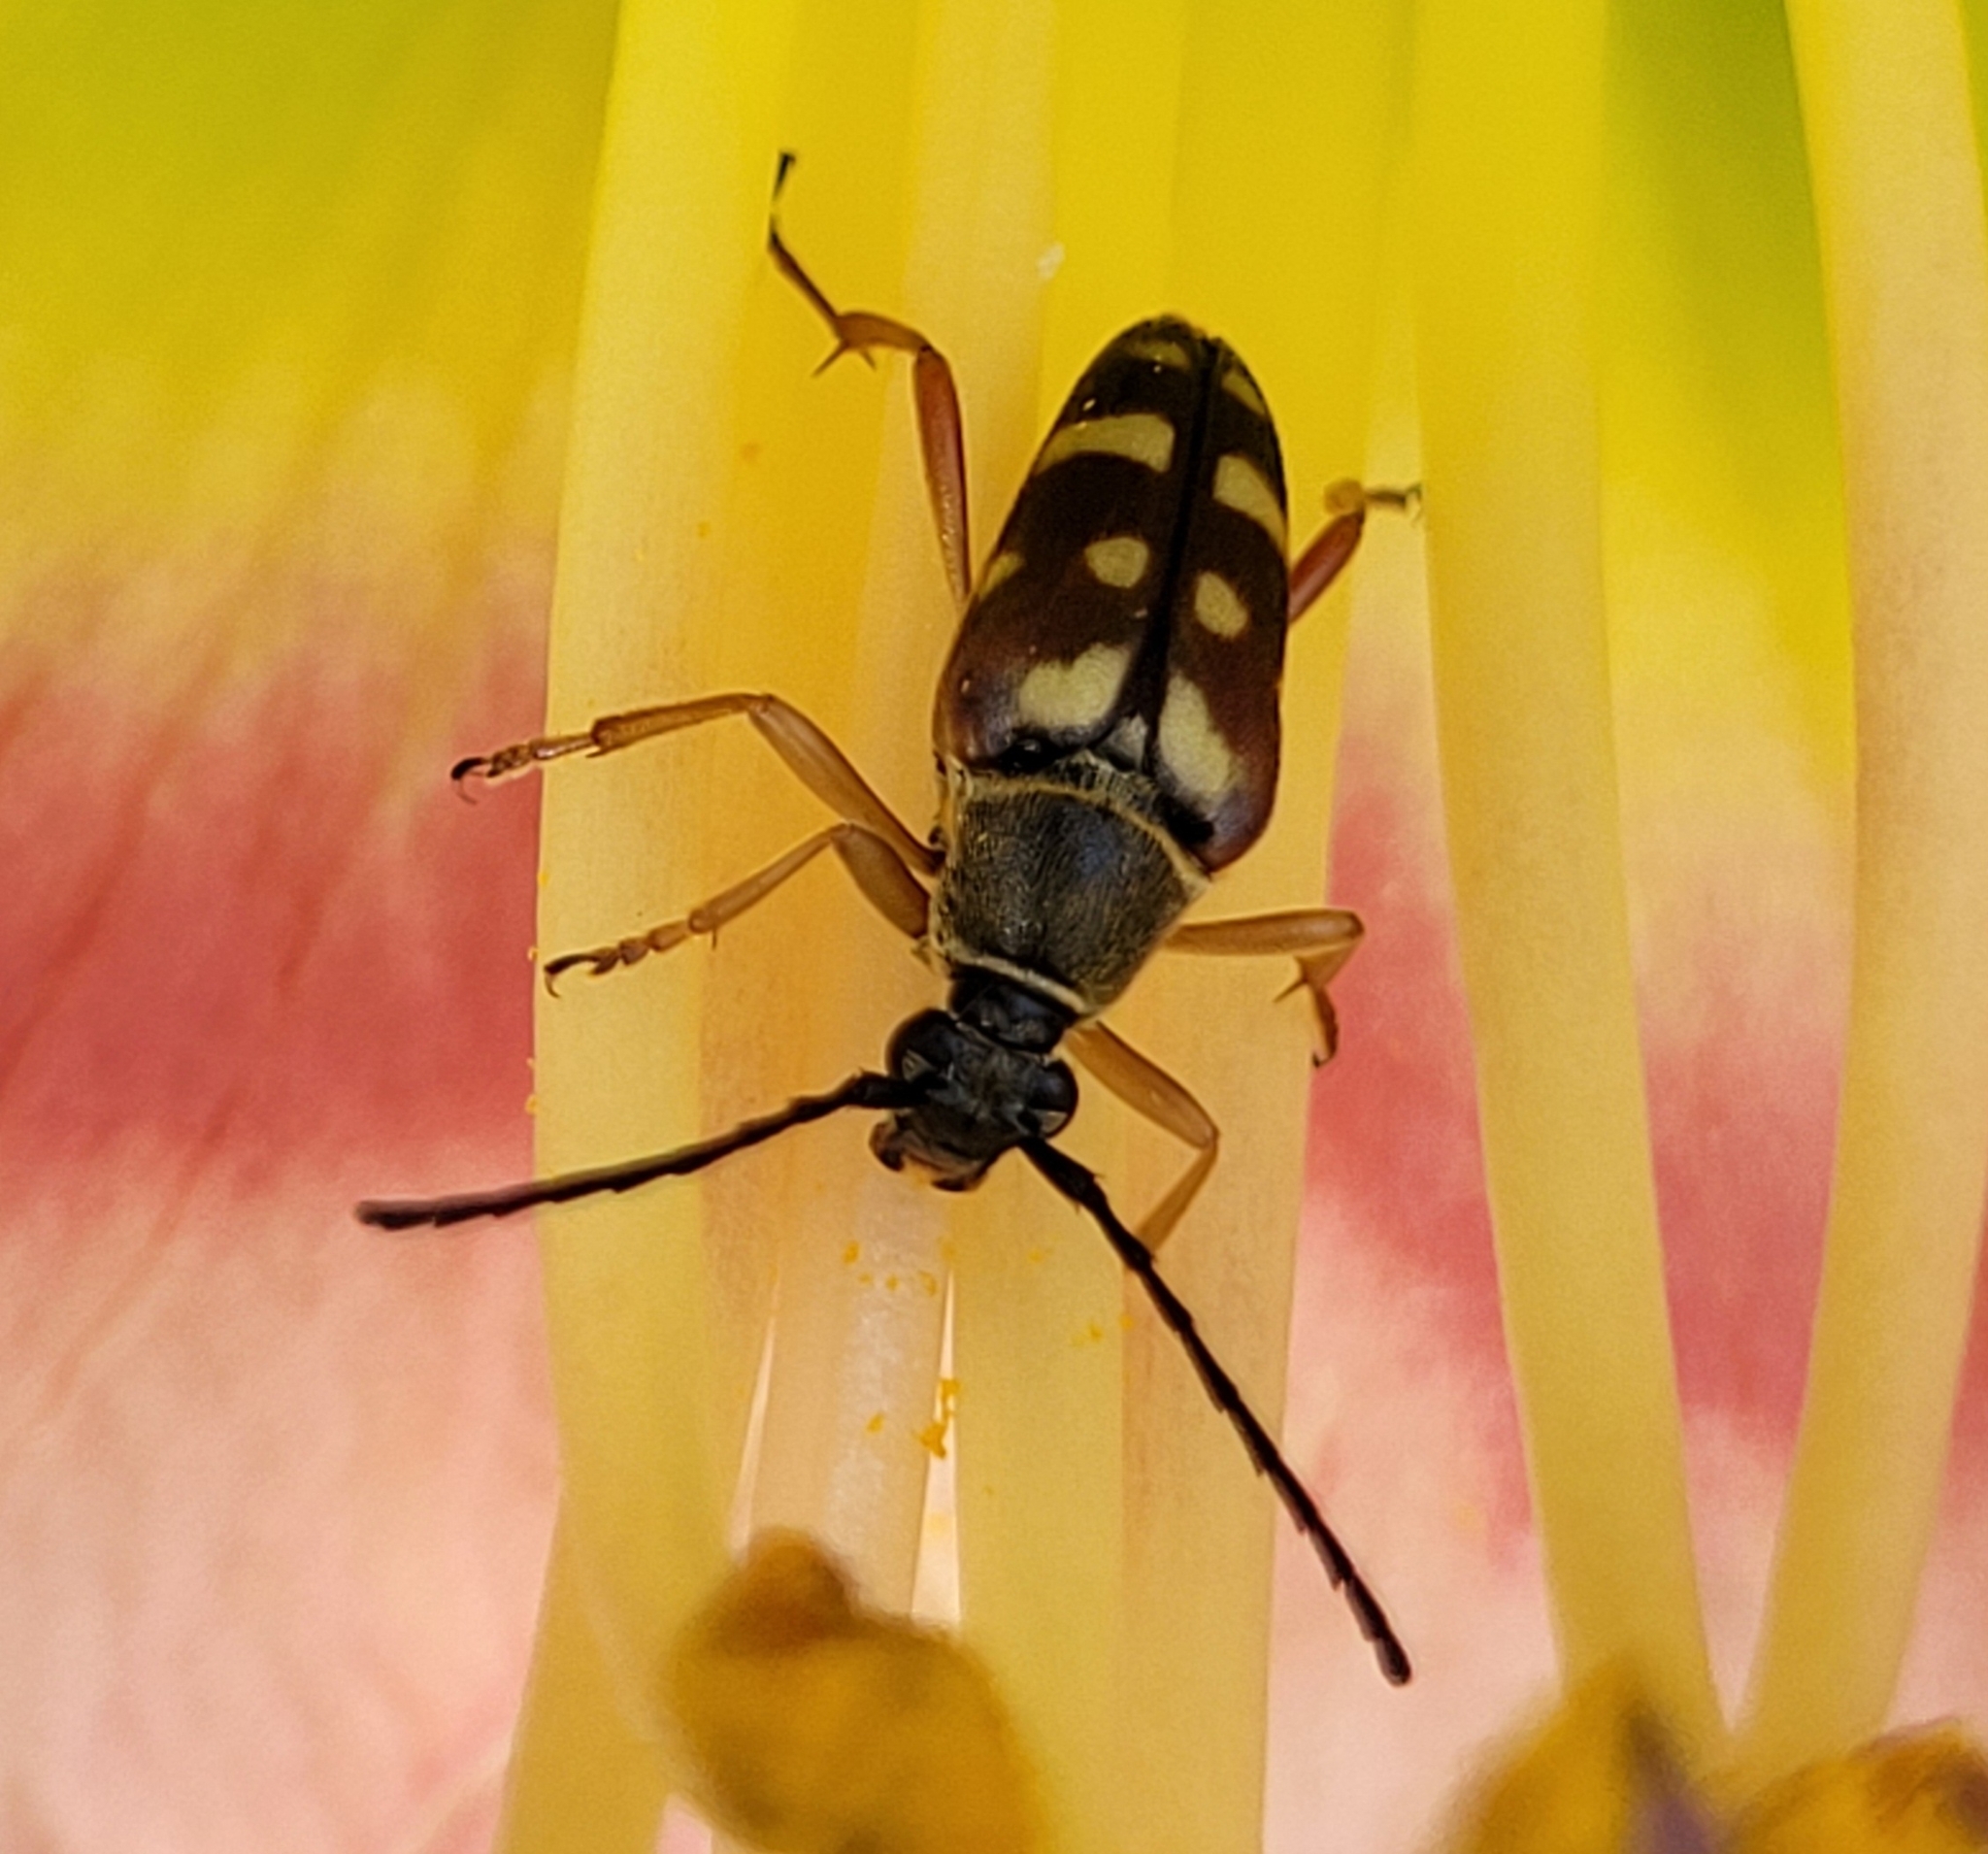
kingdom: Animalia
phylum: Arthropoda
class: Insecta
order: Coleoptera
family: Cerambycidae
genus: Typocerus
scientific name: Typocerus velutinus
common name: Banded longhorn beetle
